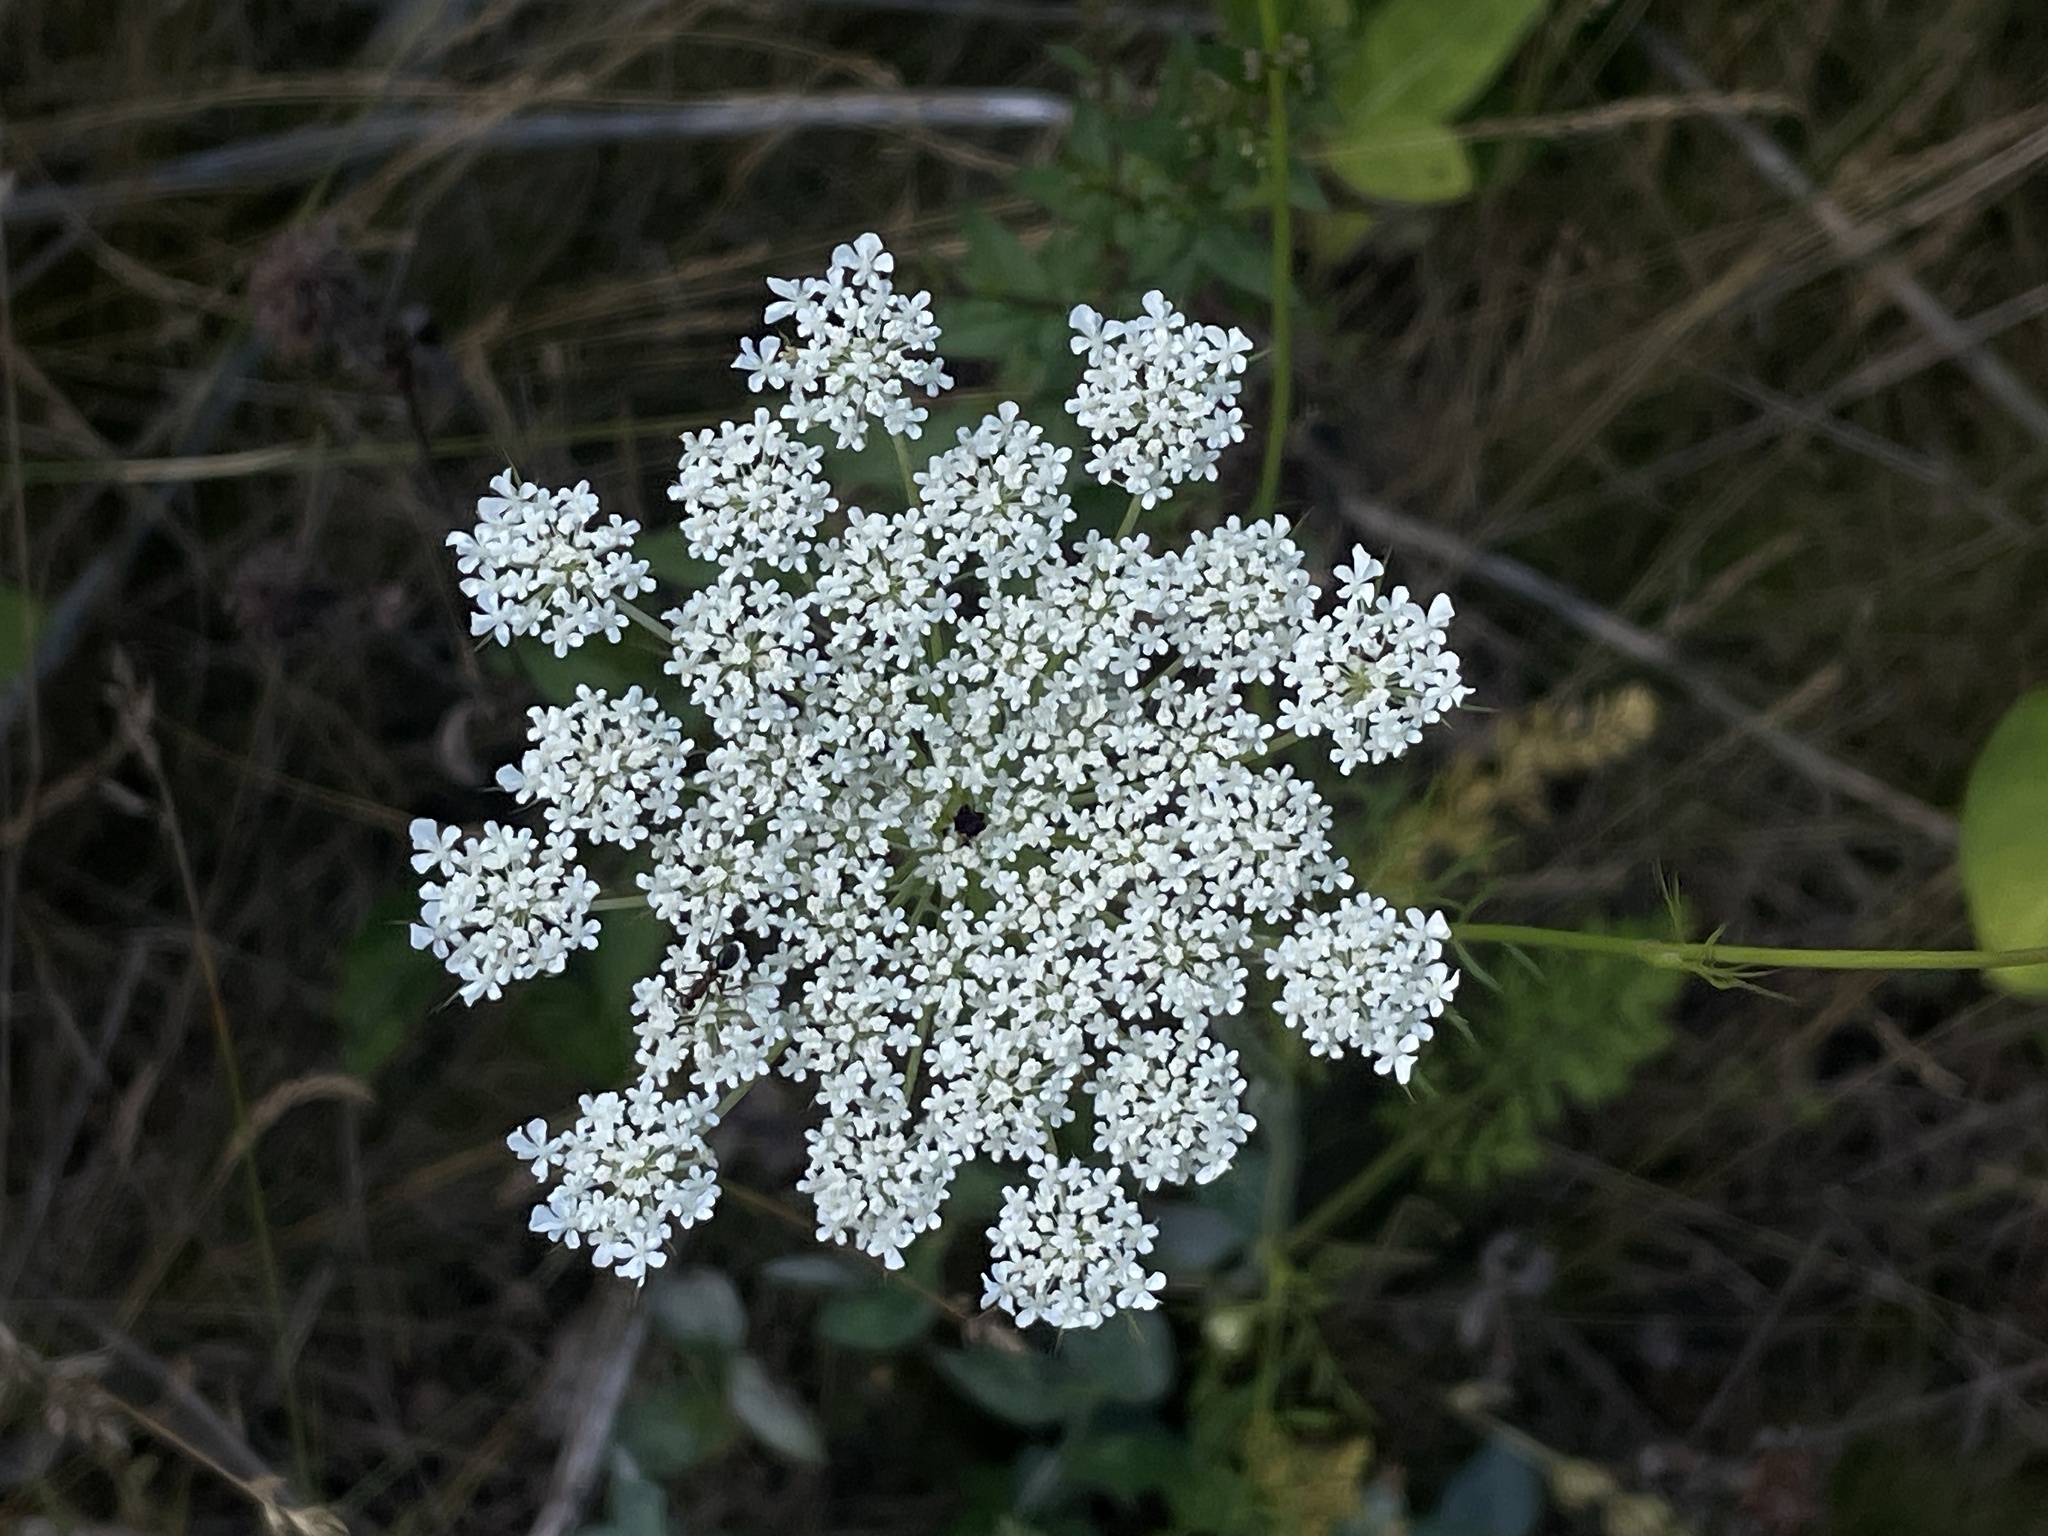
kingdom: Plantae
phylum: Tracheophyta
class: Magnoliopsida
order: Apiales
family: Apiaceae
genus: Daucus
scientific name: Daucus carota
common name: Wild carrot
